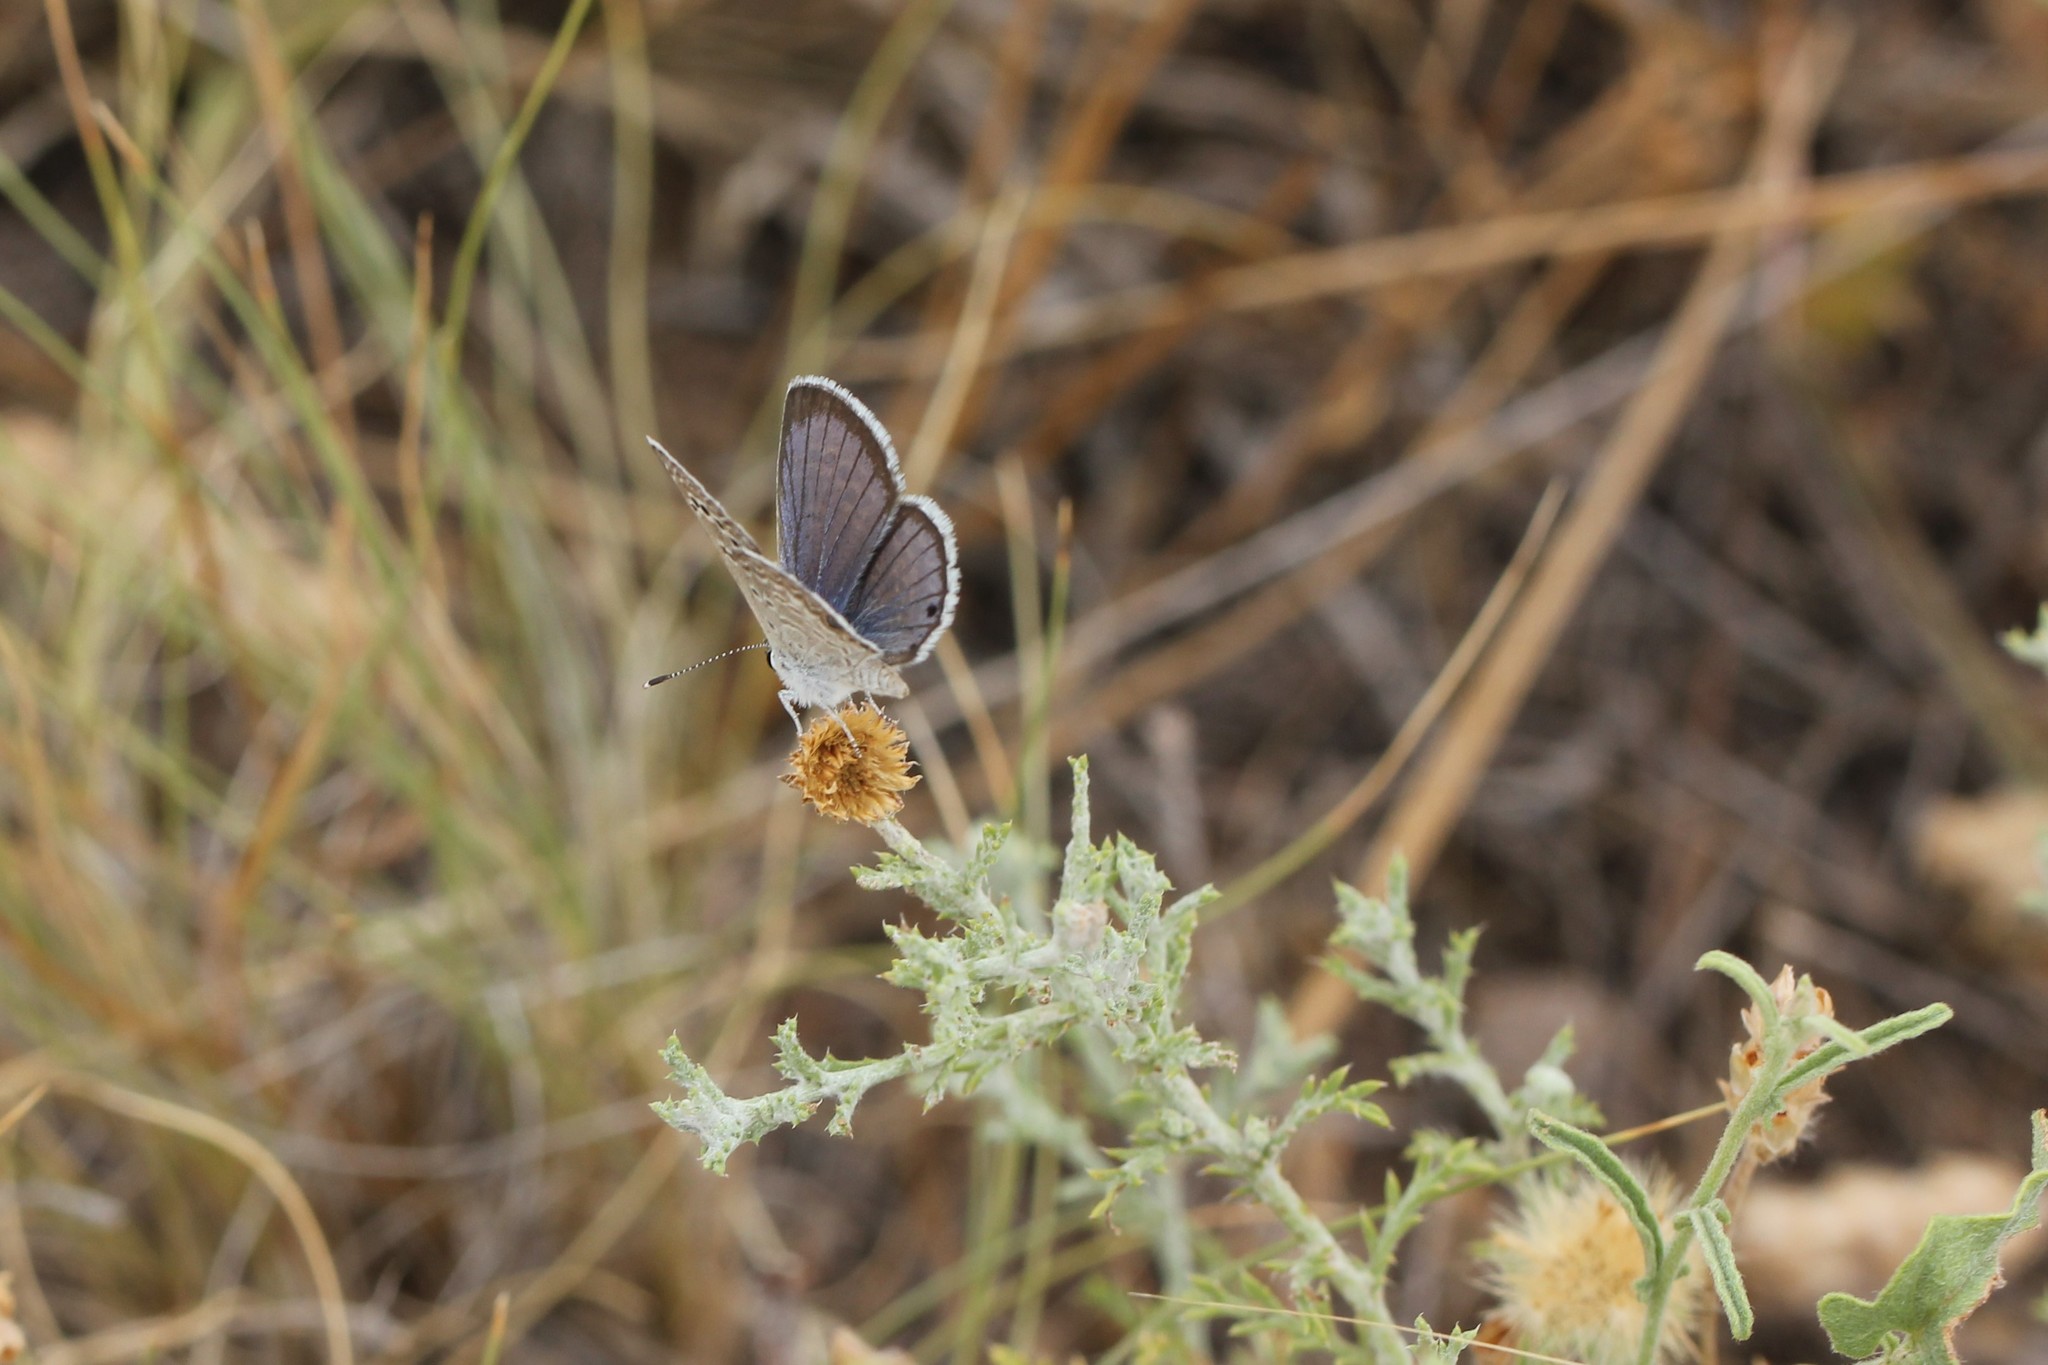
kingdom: Animalia
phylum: Arthropoda
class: Insecta
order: Lepidoptera
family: Lycaenidae
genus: Echinargus
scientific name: Echinargus isola
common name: Reakirt's blue
